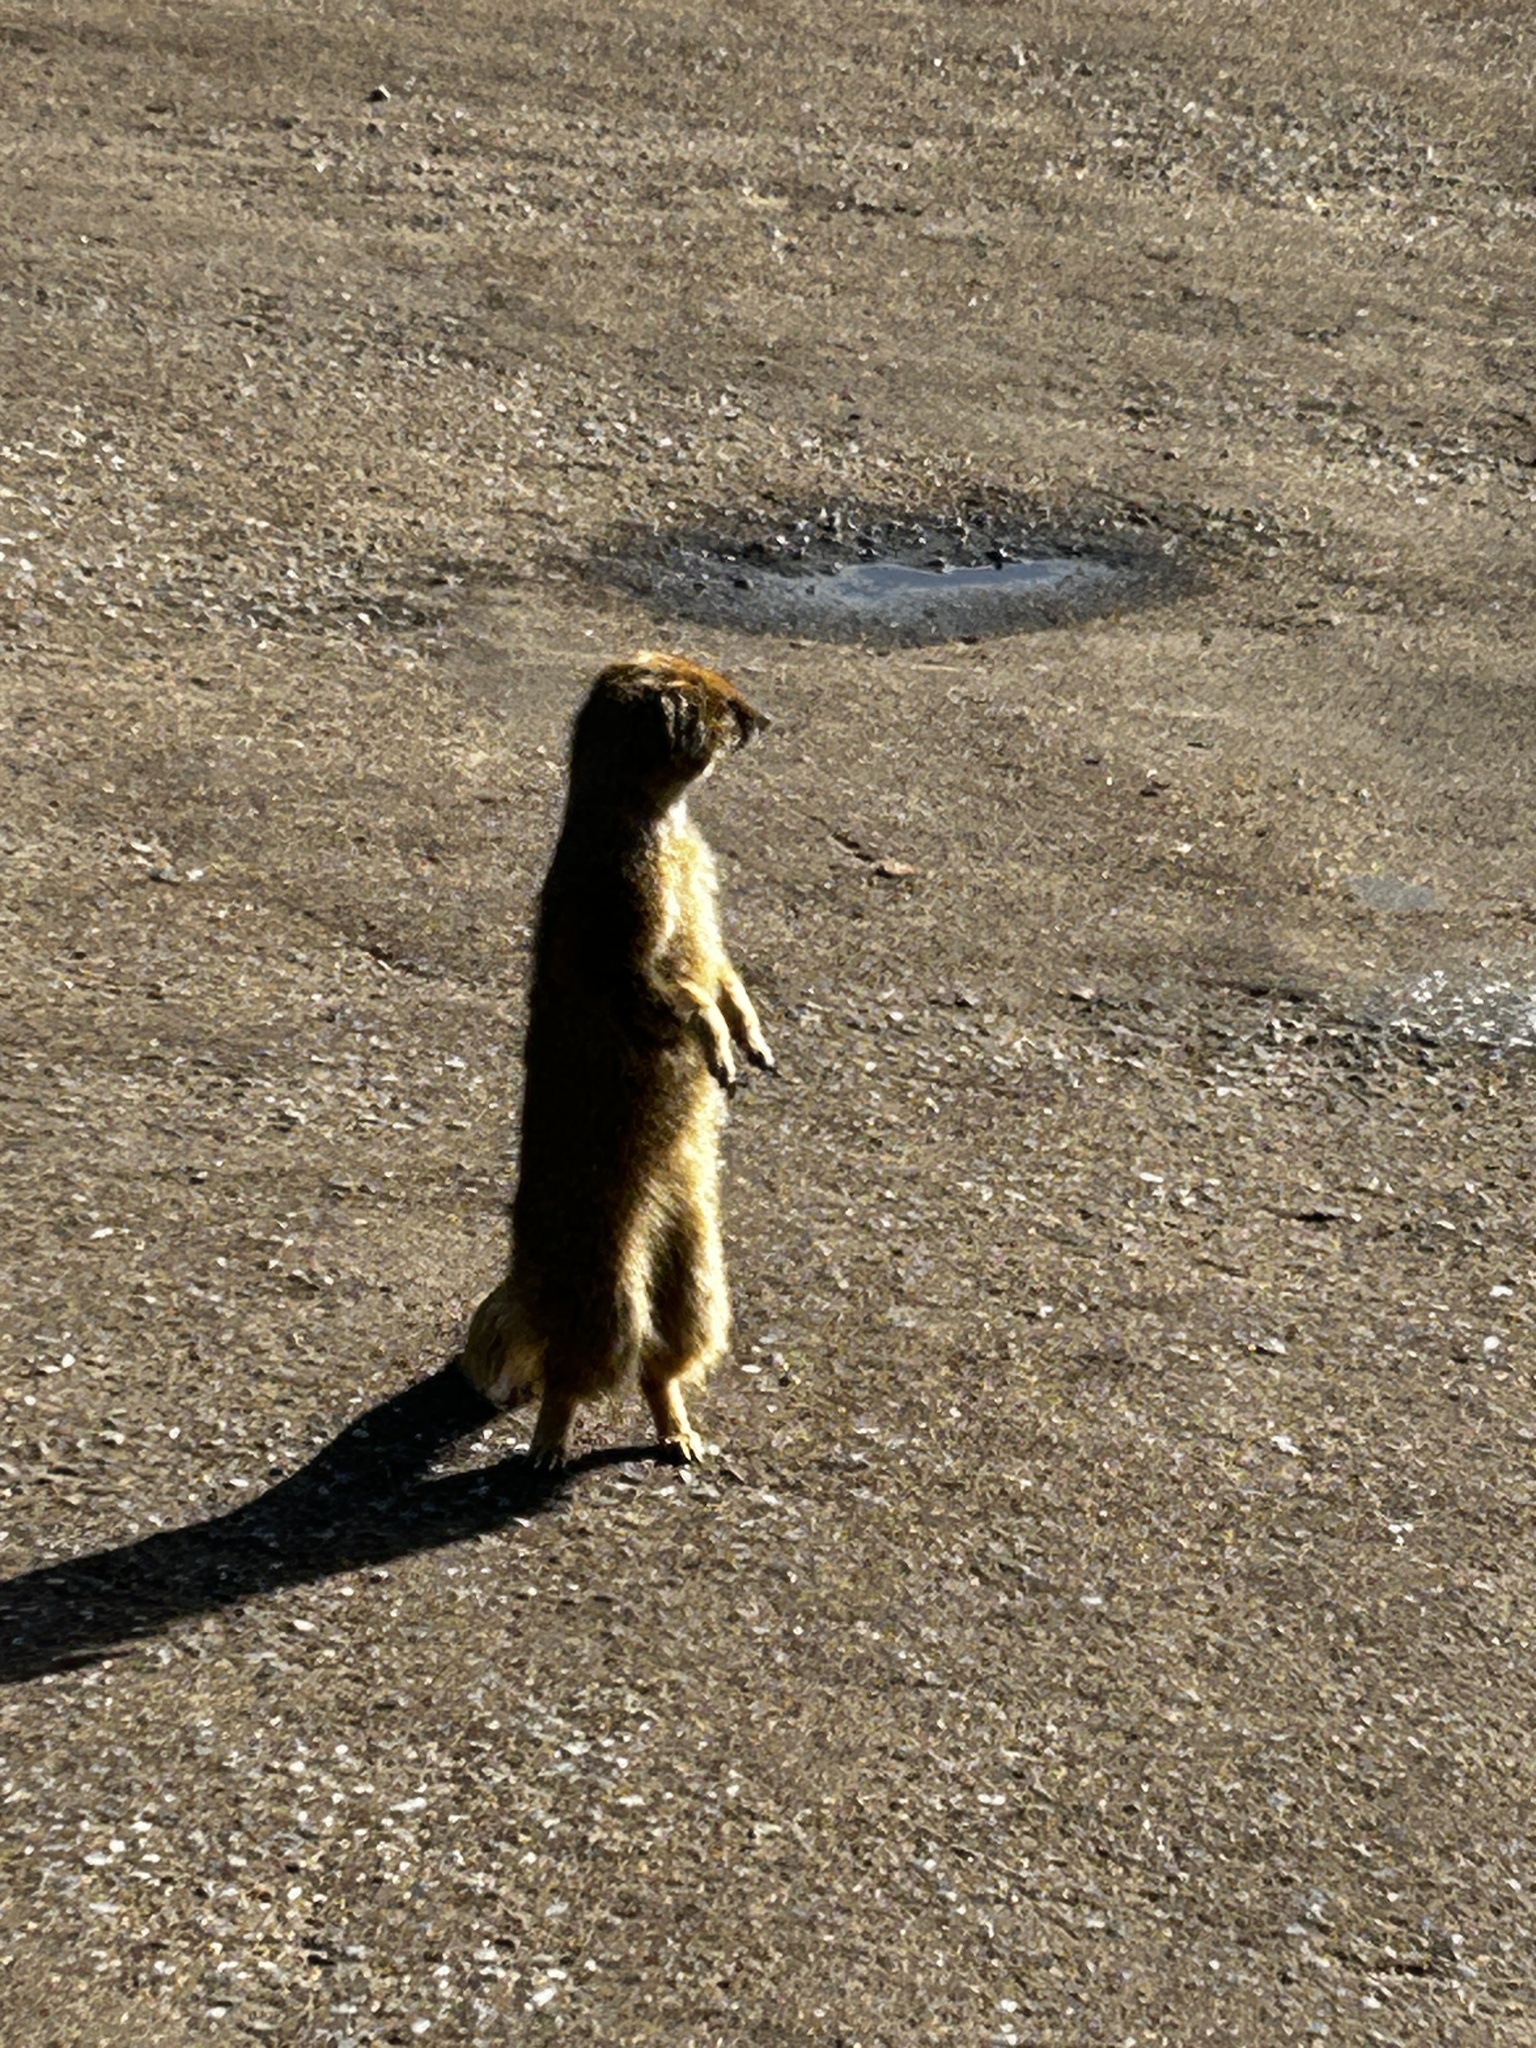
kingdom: Animalia
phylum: Chordata
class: Mammalia
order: Carnivora
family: Herpestidae
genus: Cynictis
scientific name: Cynictis penicillata
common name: Yellow mongoose
